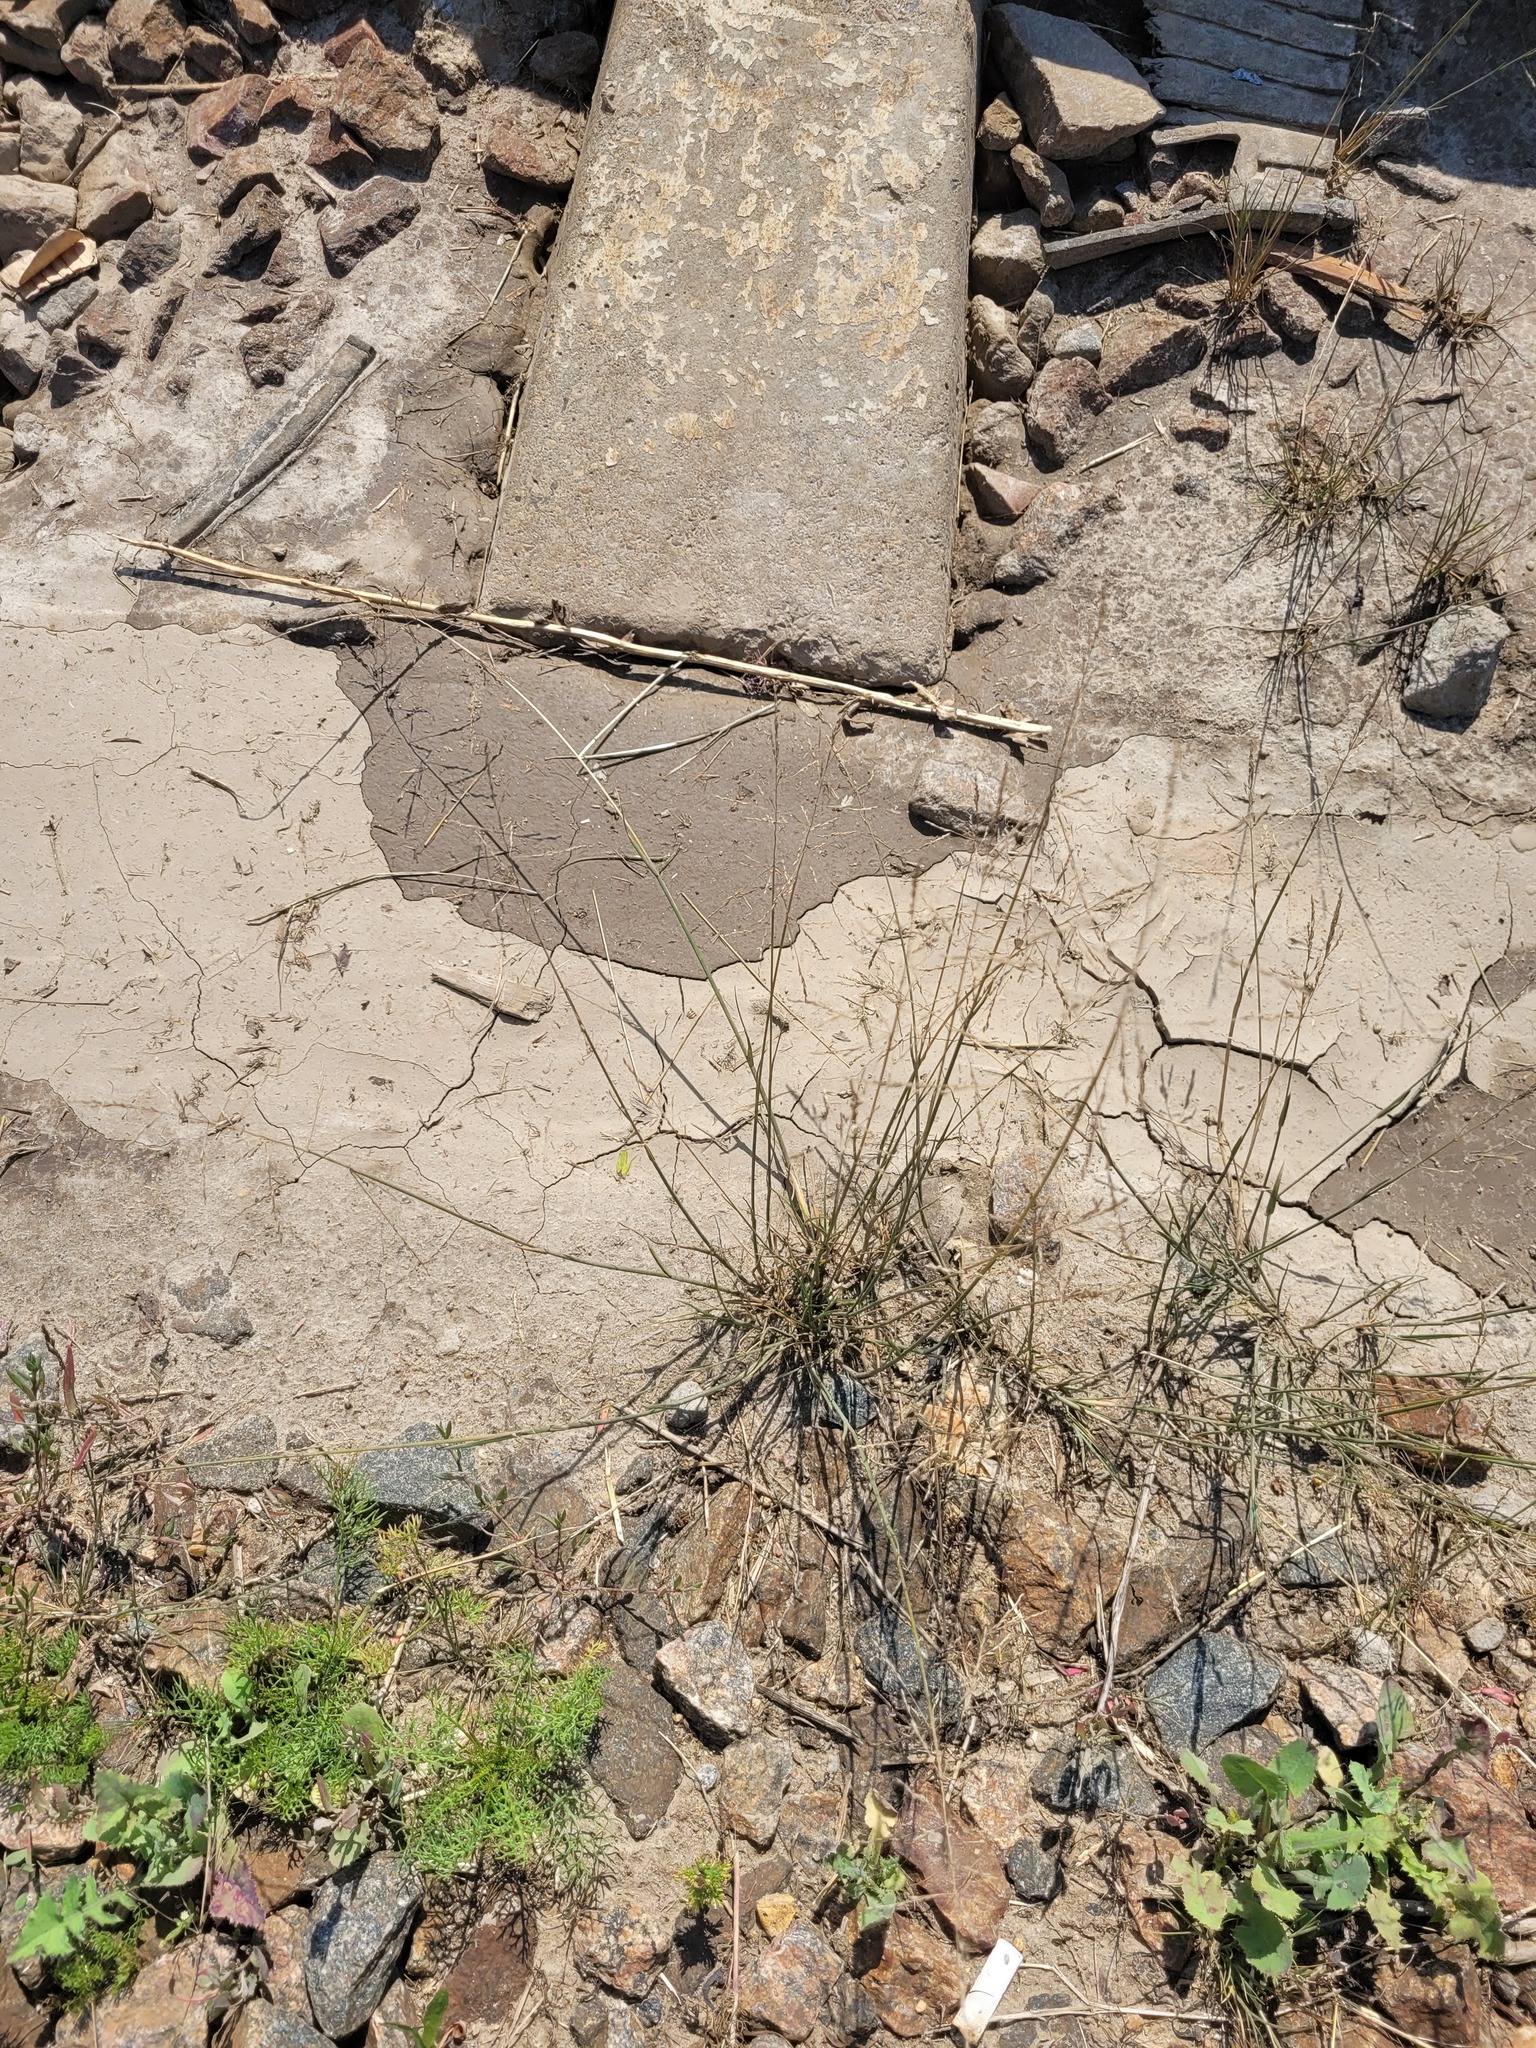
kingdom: Plantae
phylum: Tracheophyta
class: Liliopsida
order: Poales
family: Poaceae
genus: Puccinellia
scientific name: Puccinellia distans
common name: Weeping alkaligrass
